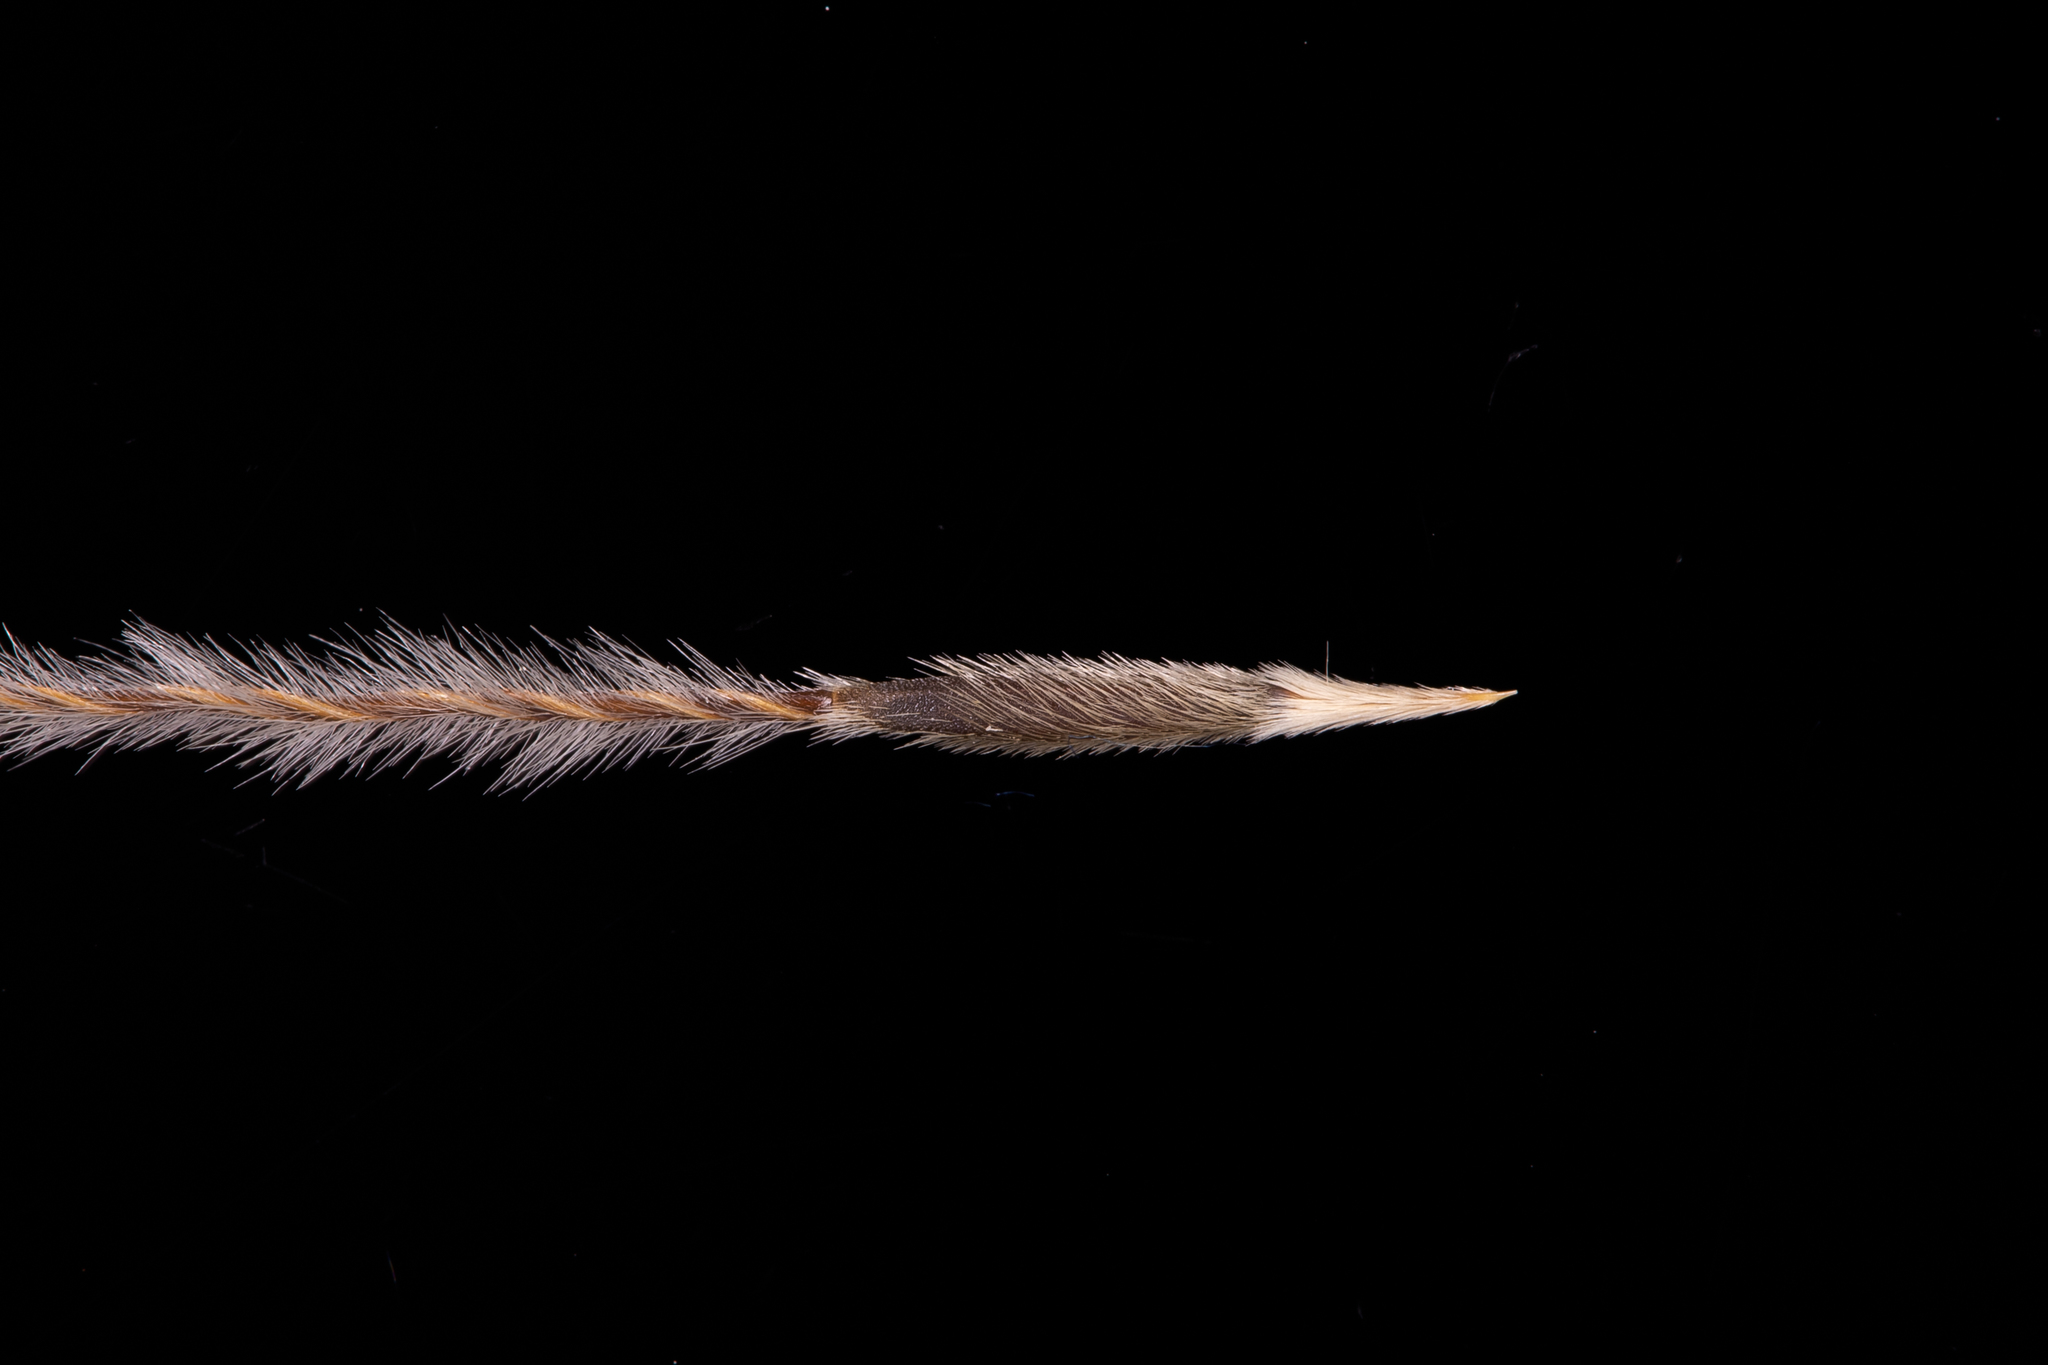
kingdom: Plantae
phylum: Tracheophyta
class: Liliopsida
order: Poales
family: Poaceae
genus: Austrostipa
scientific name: Austrostipa mollis
